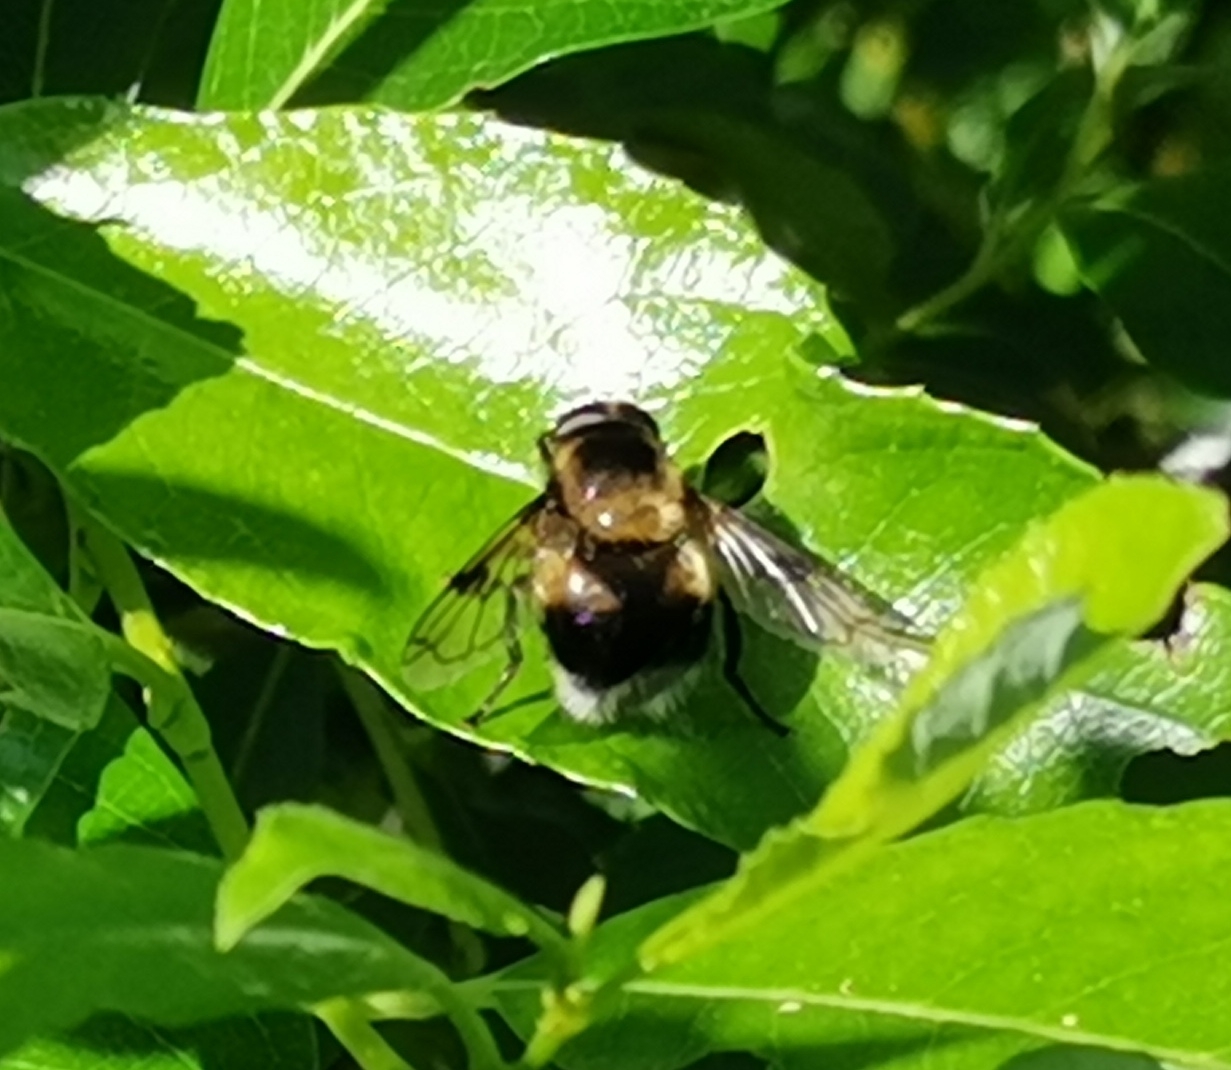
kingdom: Animalia
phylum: Arthropoda
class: Insecta
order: Diptera
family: Syrphidae
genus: Volucella
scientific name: Volucella bombylans
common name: Bumble bee hover fly
